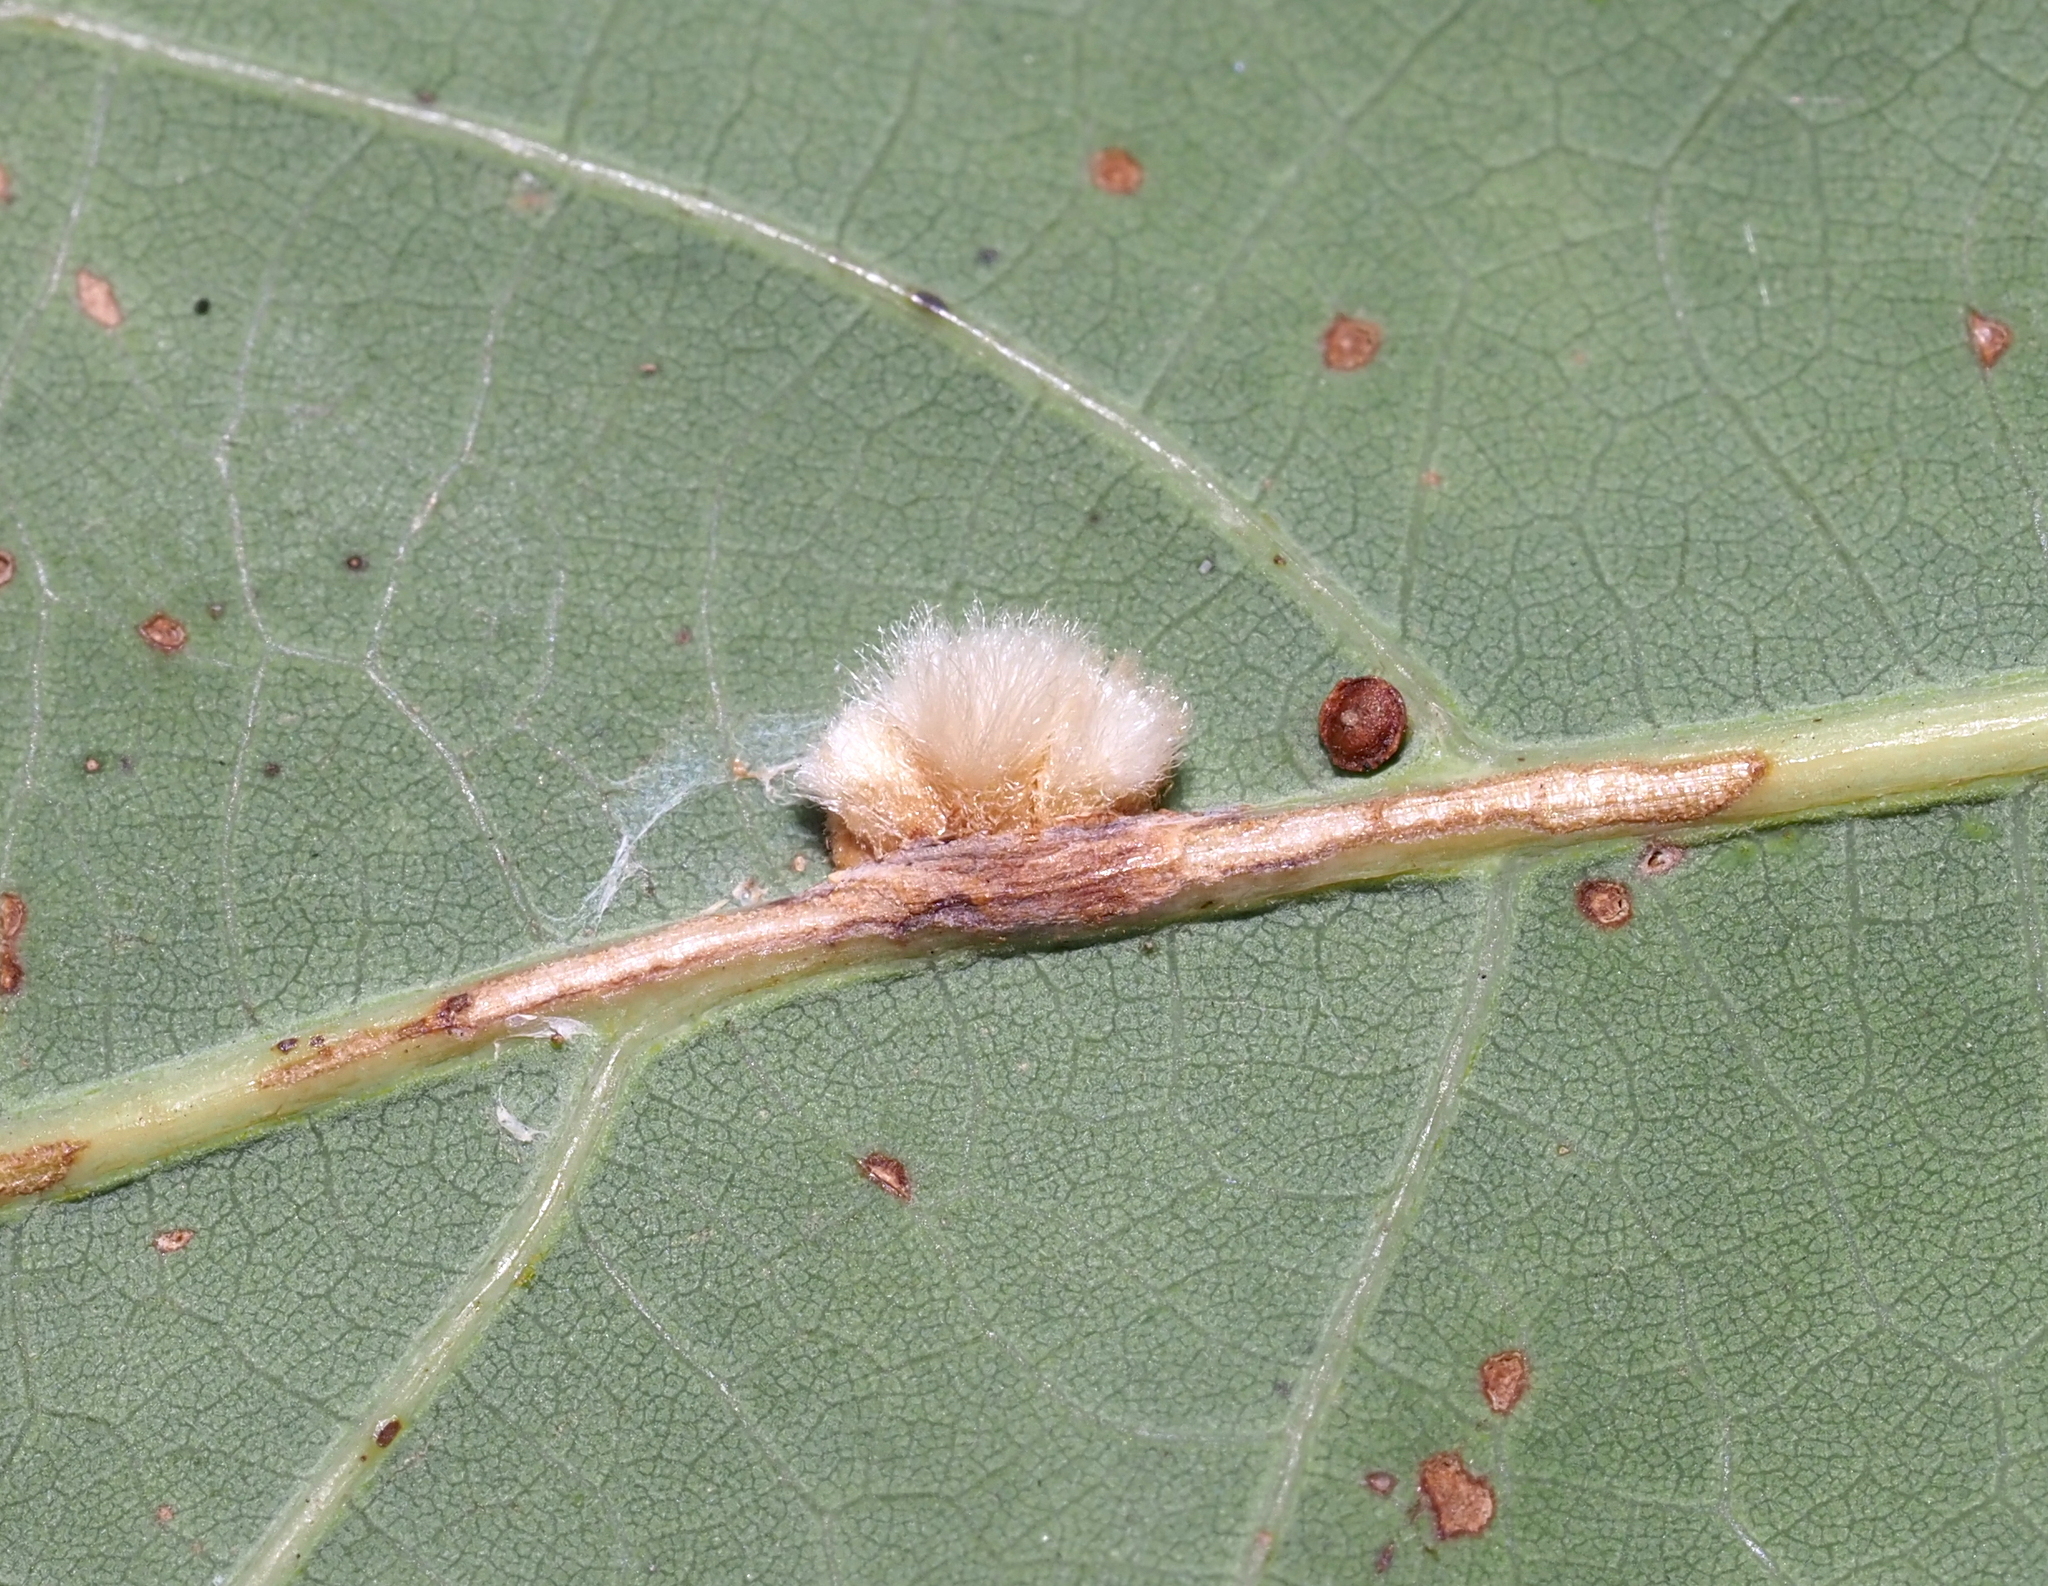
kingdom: Animalia
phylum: Arthropoda
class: Insecta
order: Hymenoptera
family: Cynipidae
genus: Andricus
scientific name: Andricus quercusflocci
